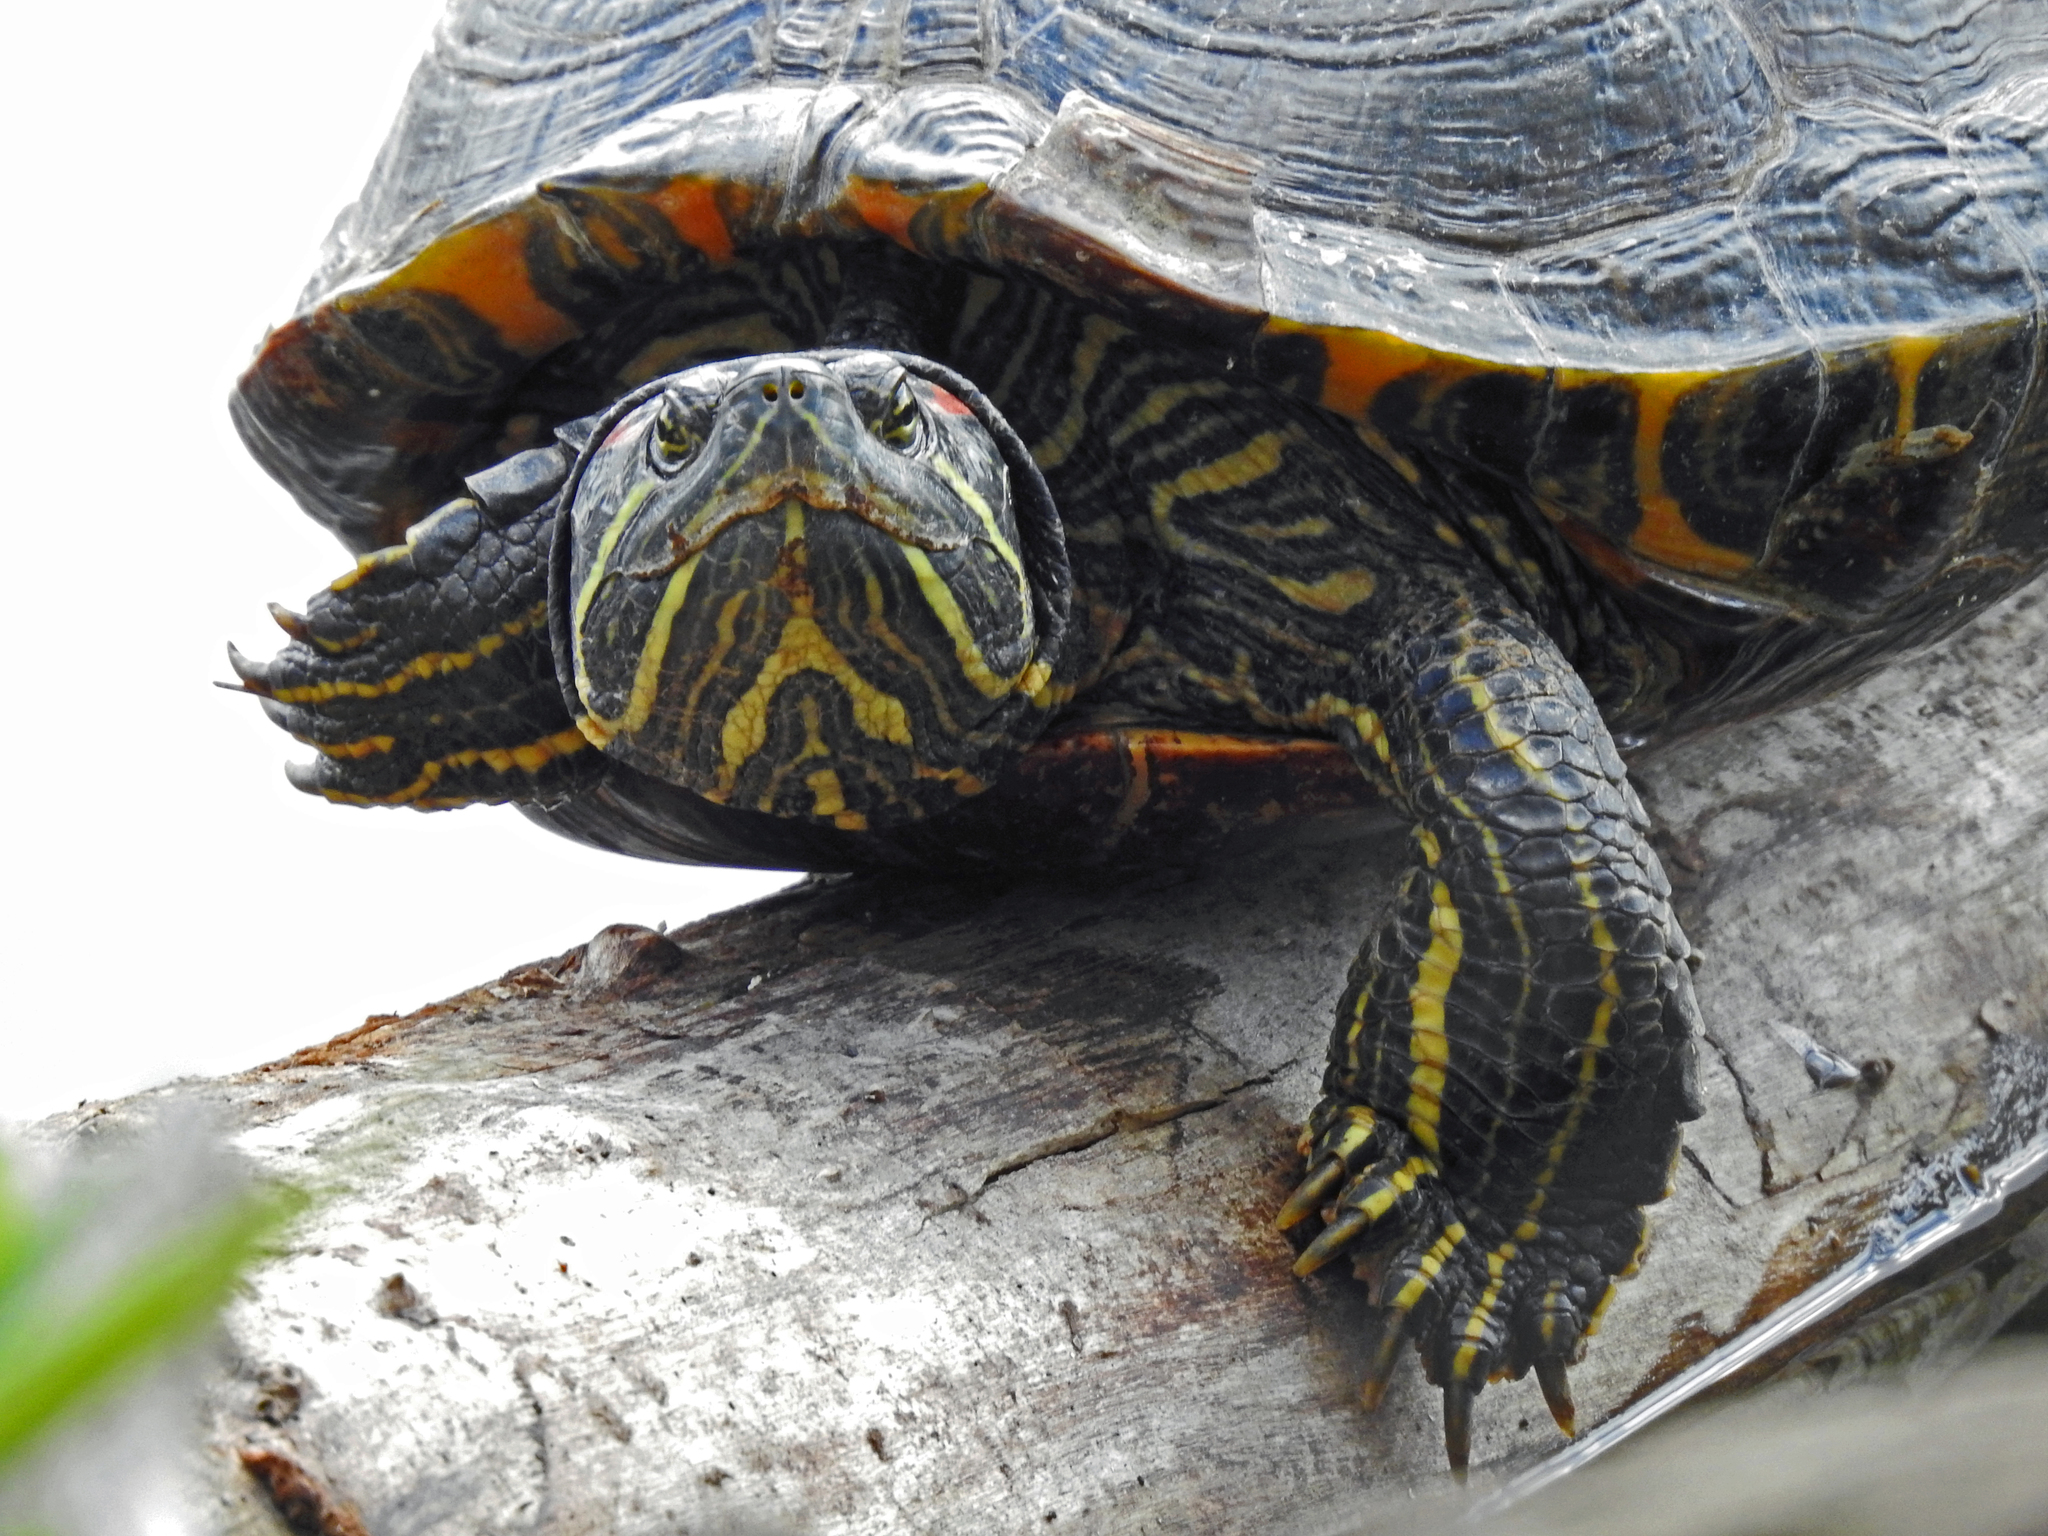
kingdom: Animalia
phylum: Chordata
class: Testudines
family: Emydidae
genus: Trachemys
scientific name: Trachemys scripta
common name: Slider
